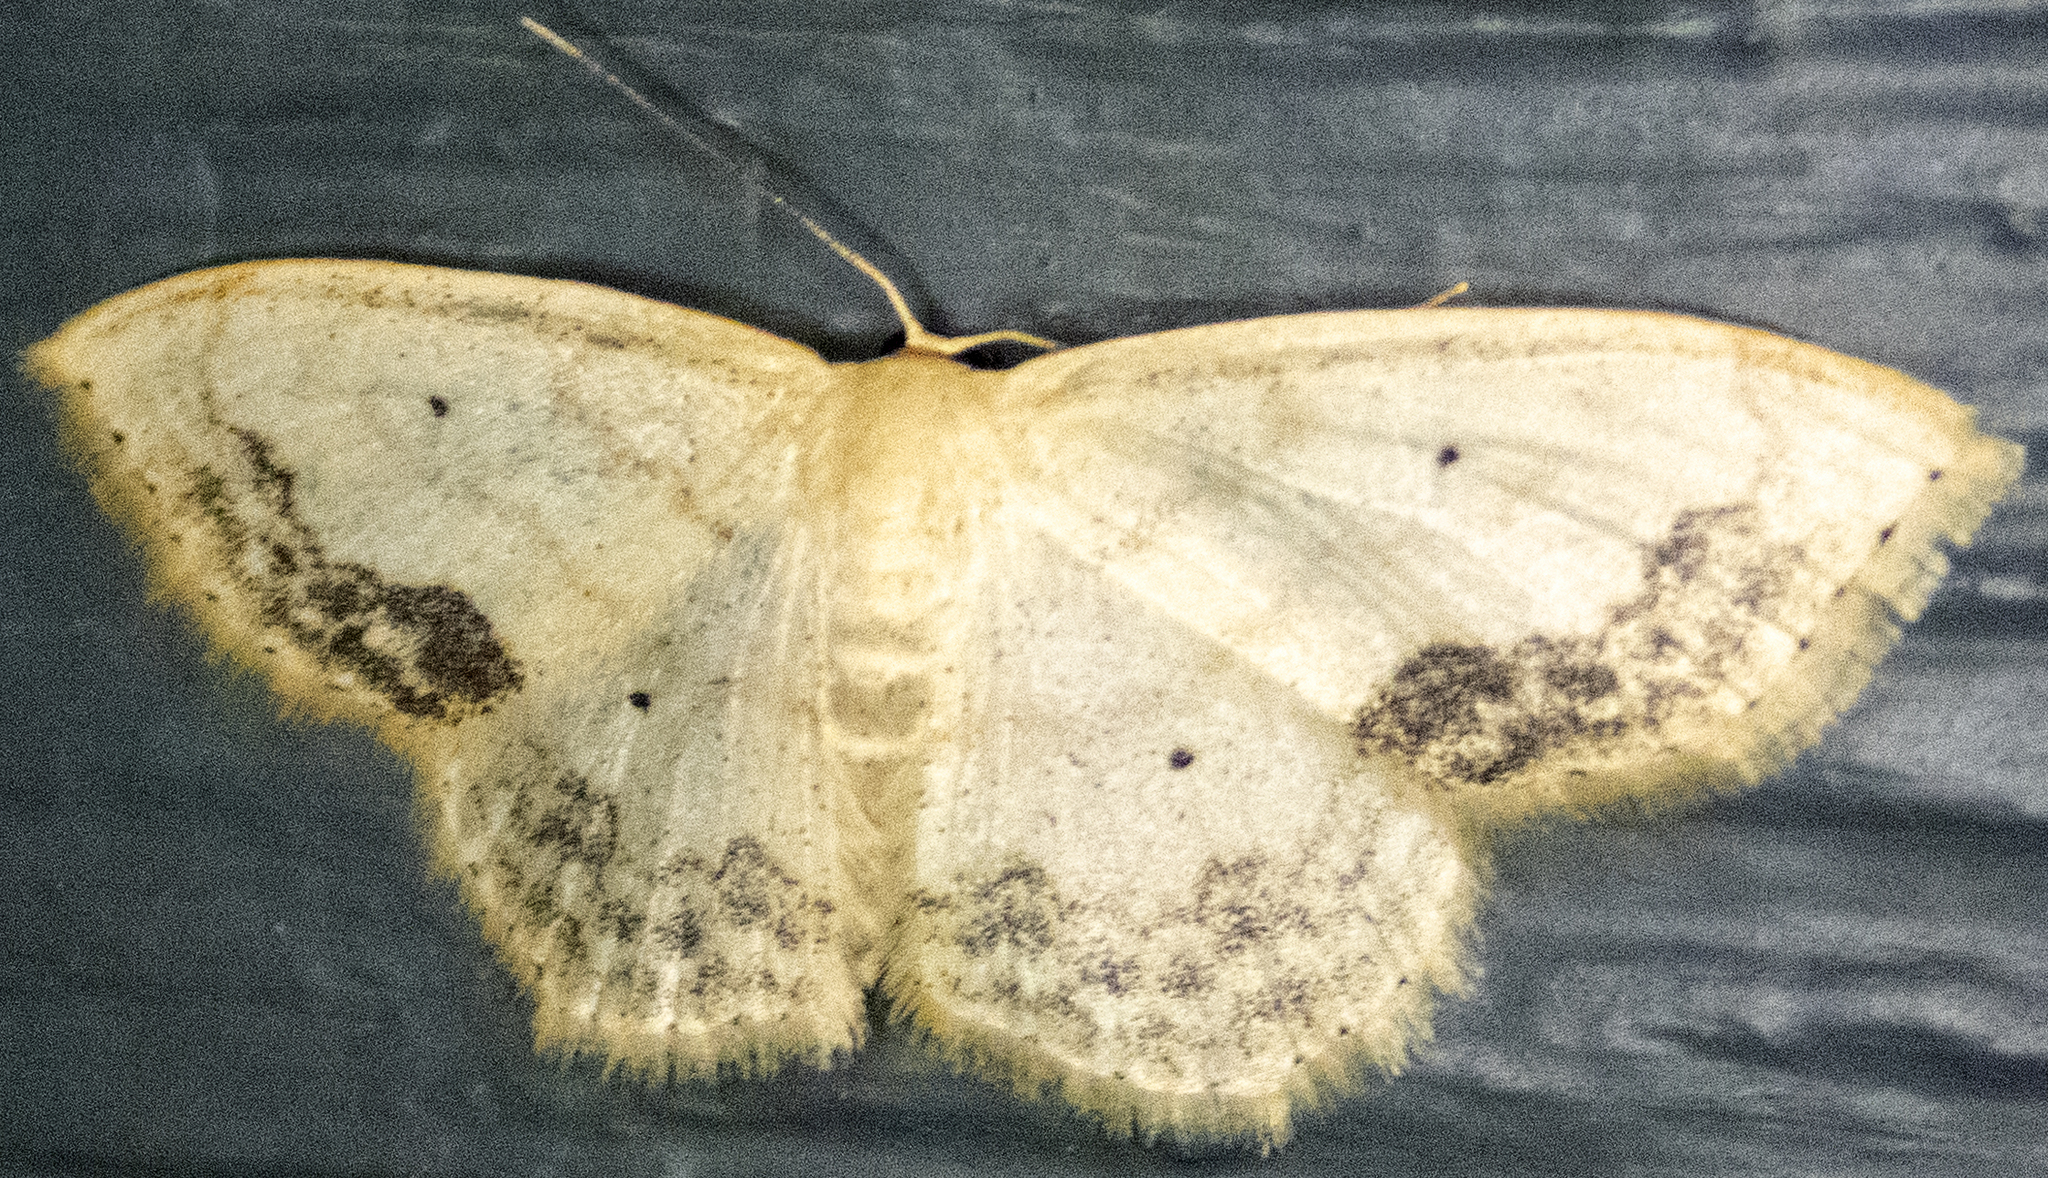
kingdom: Animalia
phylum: Arthropoda
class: Insecta
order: Lepidoptera
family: Geometridae
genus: Scopula
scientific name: Scopula limboundata
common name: Large lace border
